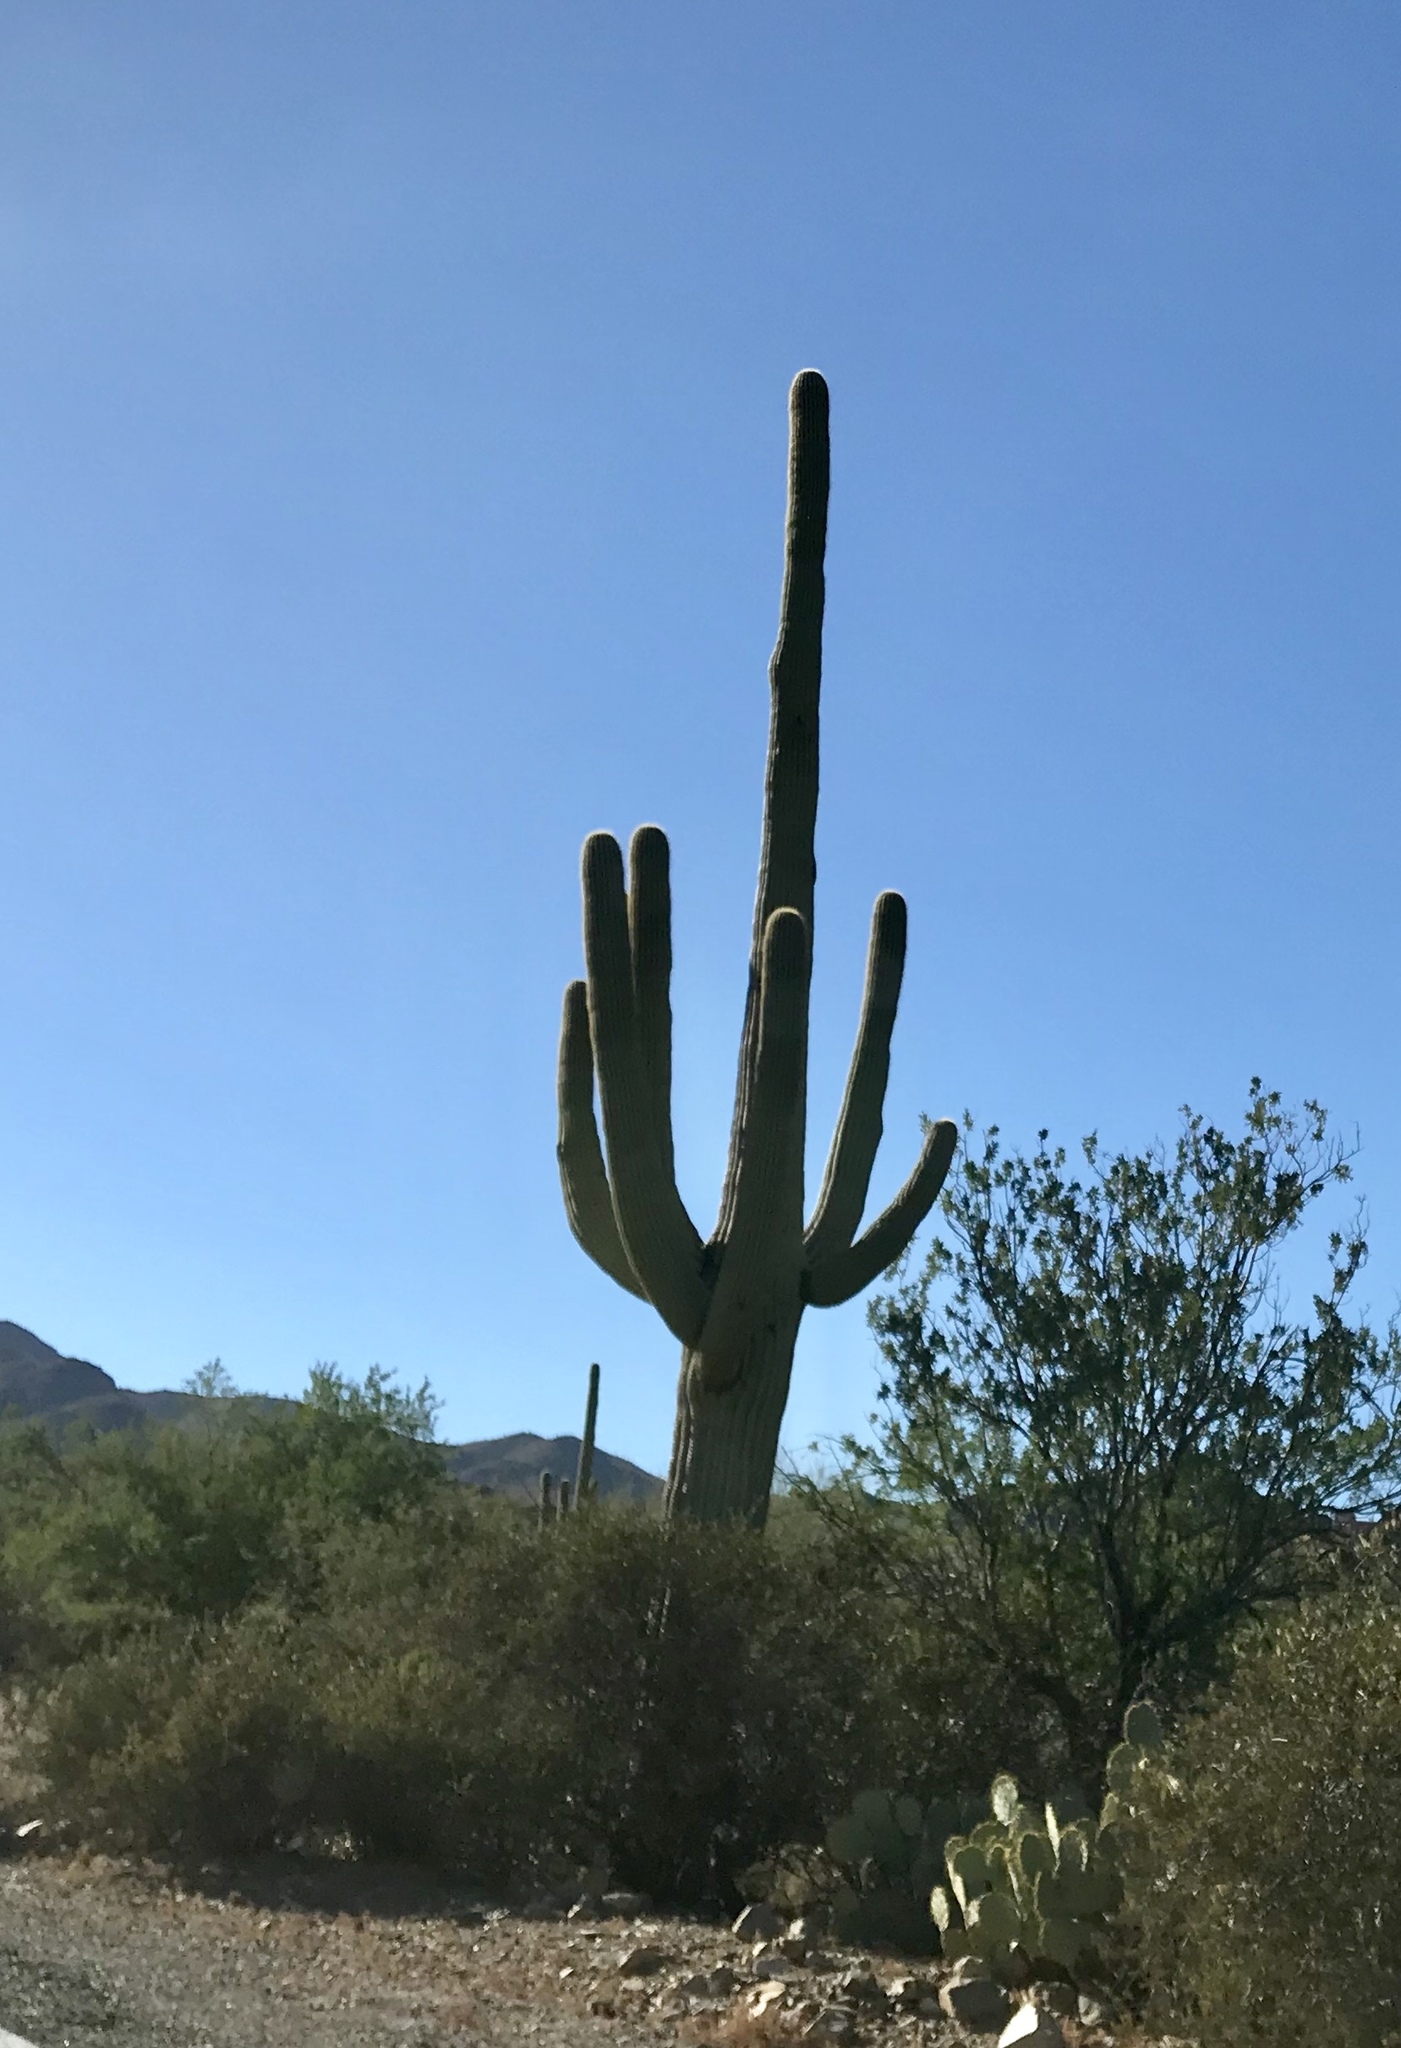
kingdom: Plantae
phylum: Tracheophyta
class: Magnoliopsida
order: Caryophyllales
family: Cactaceae
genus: Carnegiea
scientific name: Carnegiea gigantea
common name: Saguaro
